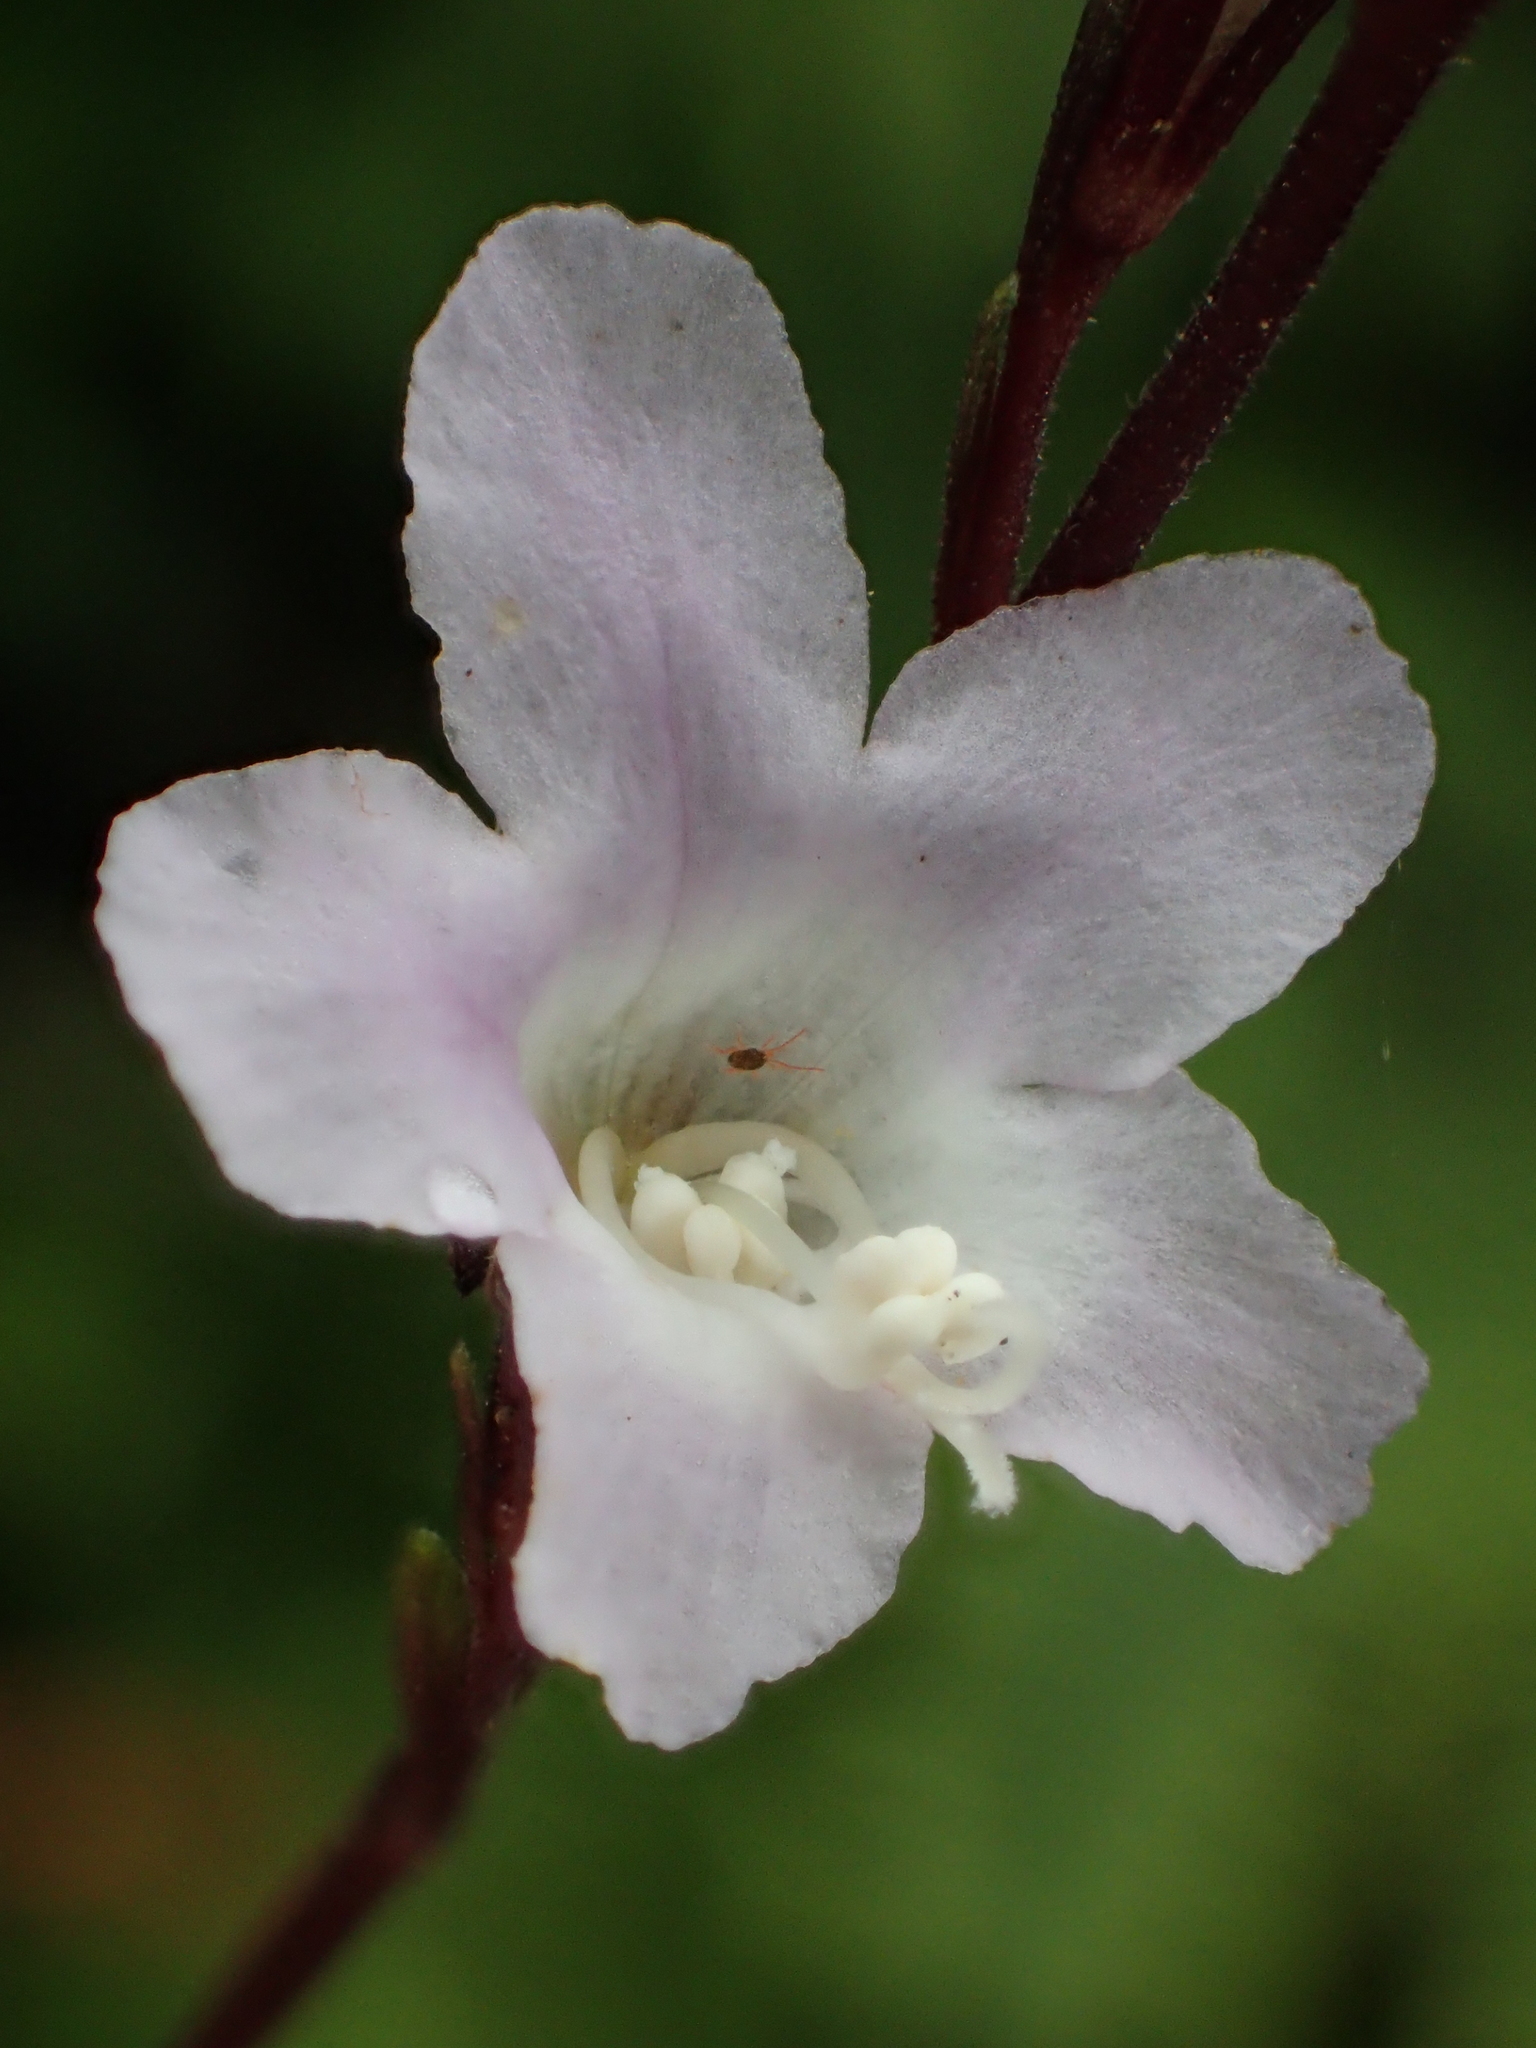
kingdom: Plantae
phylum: Tracheophyta
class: Magnoliopsida
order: Lamiales
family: Acanthaceae
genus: Staurogyne
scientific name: Staurogyne concinnula
